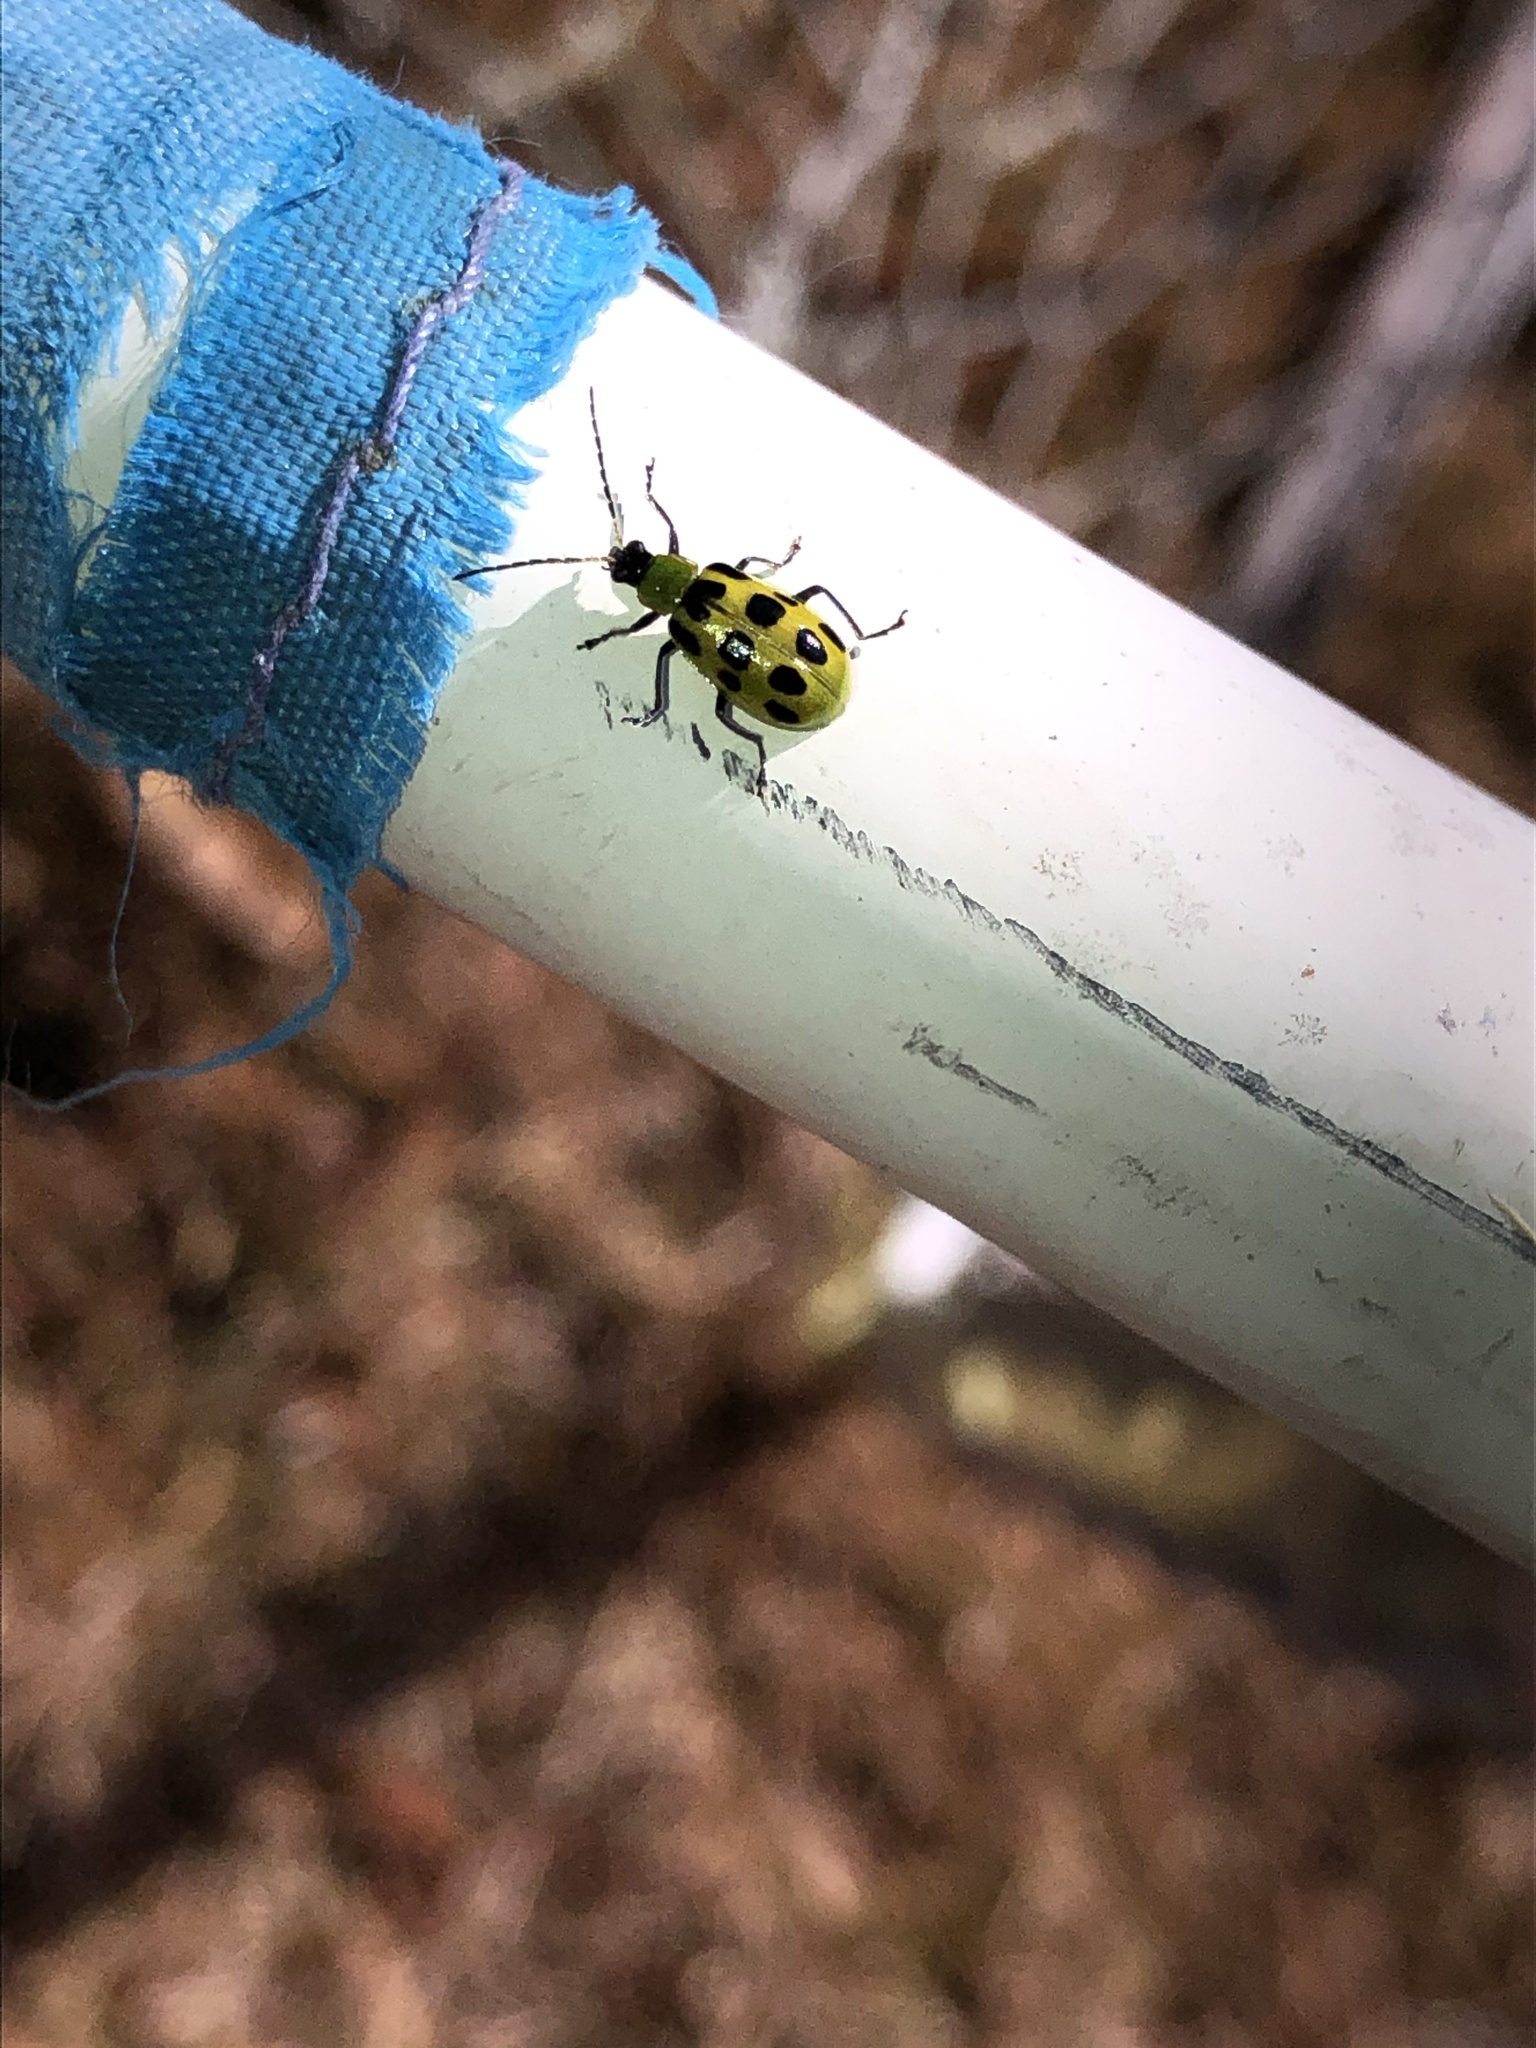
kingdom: Animalia
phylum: Arthropoda
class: Insecta
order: Coleoptera
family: Chrysomelidae
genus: Diabrotica
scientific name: Diabrotica undecimpunctata
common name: Spotted cucumber beetle
